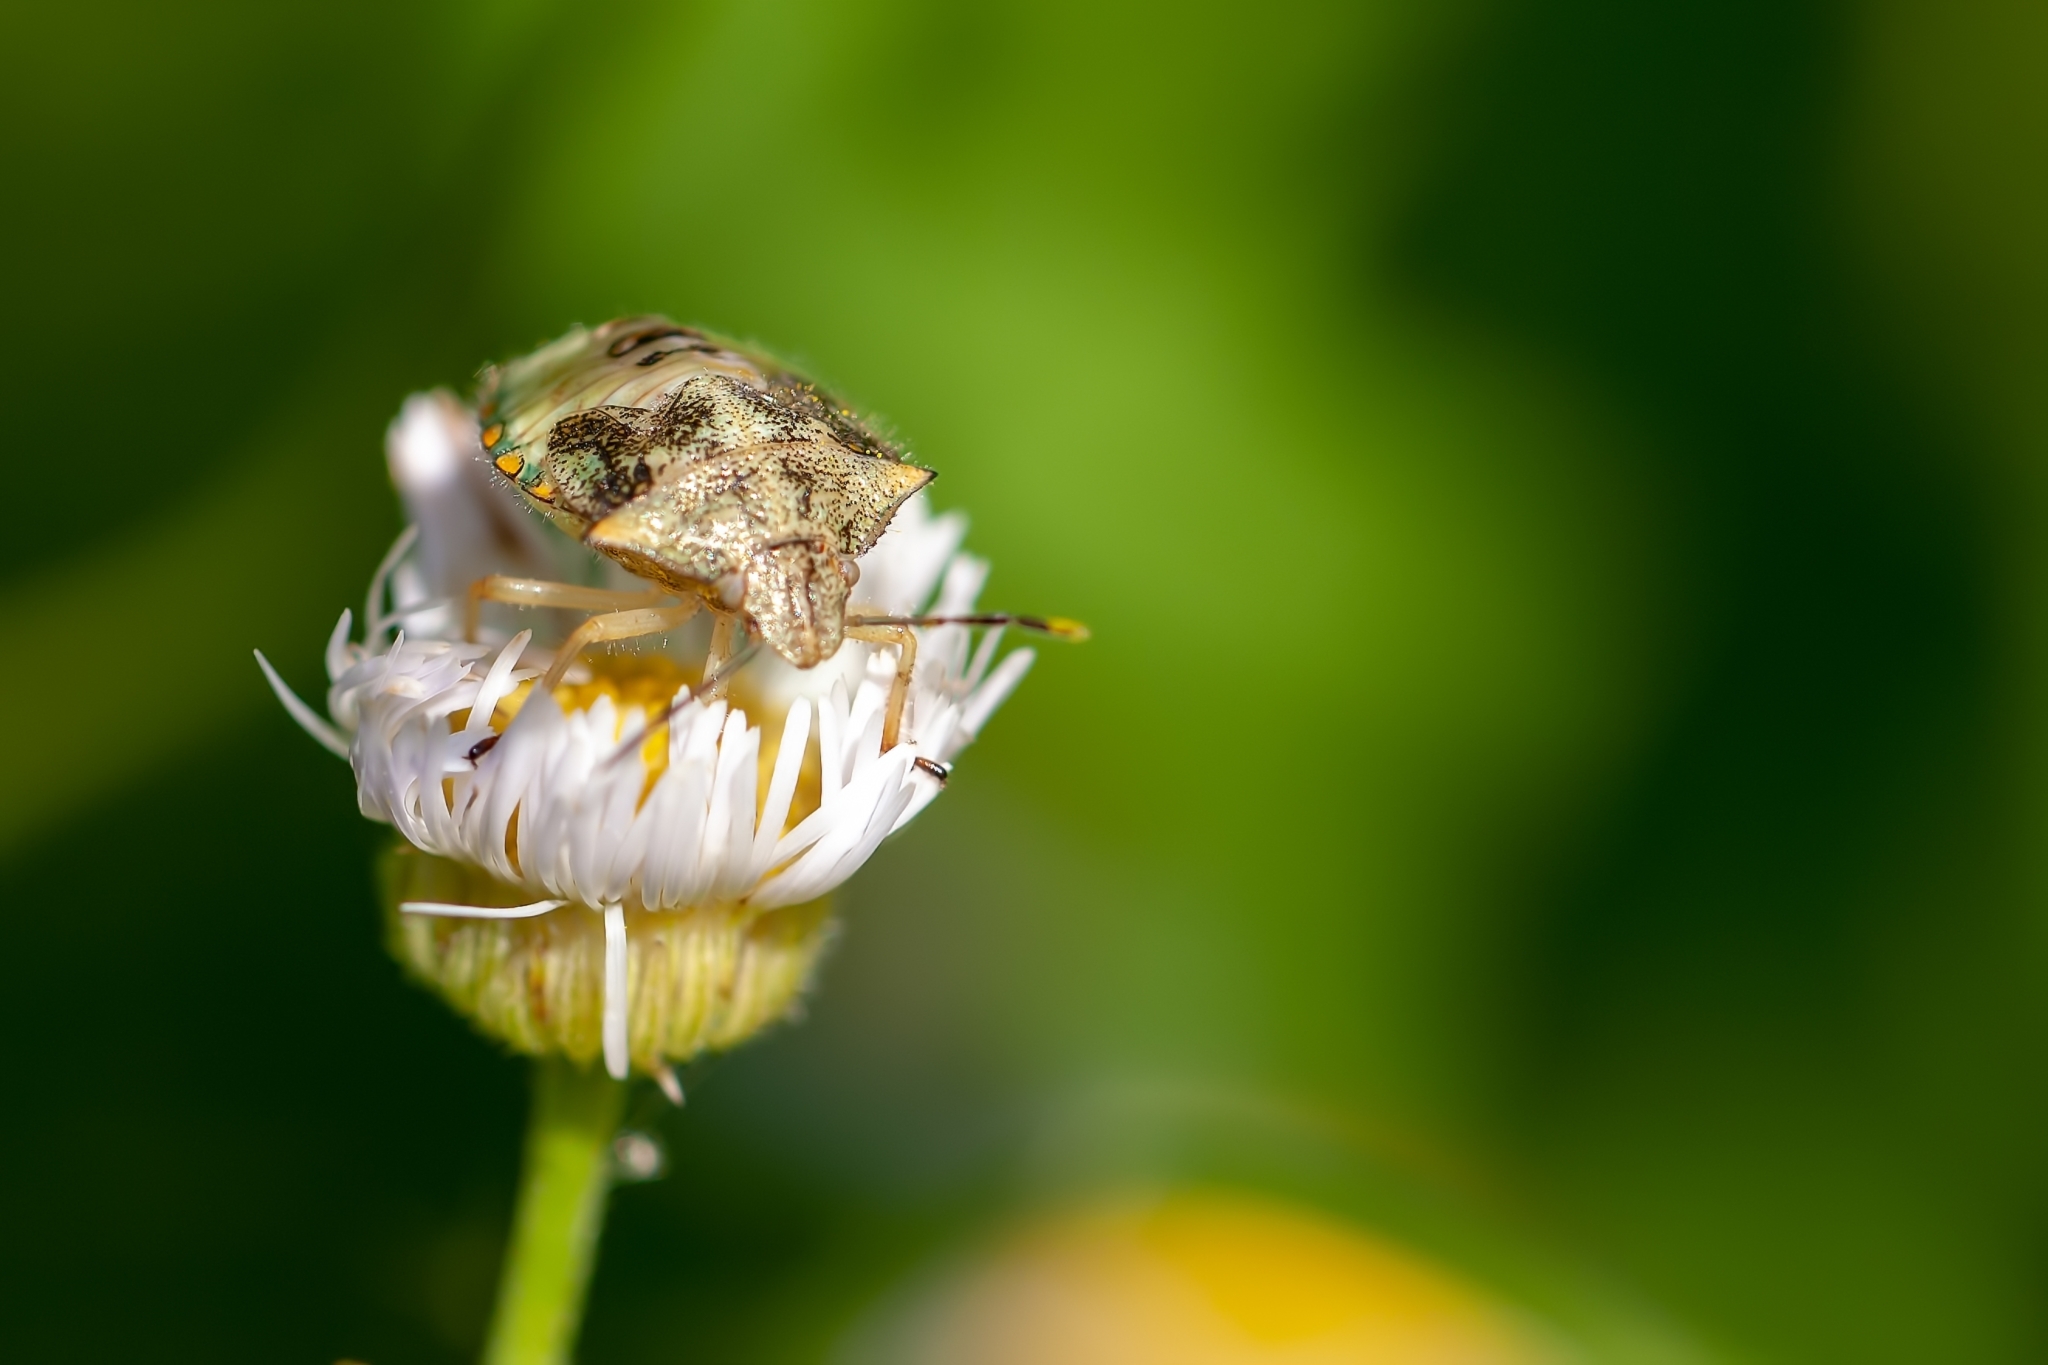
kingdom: Animalia
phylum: Arthropoda
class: Insecta
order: Hemiptera
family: Pentatomidae
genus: Thyanta
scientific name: Thyanta perditor
